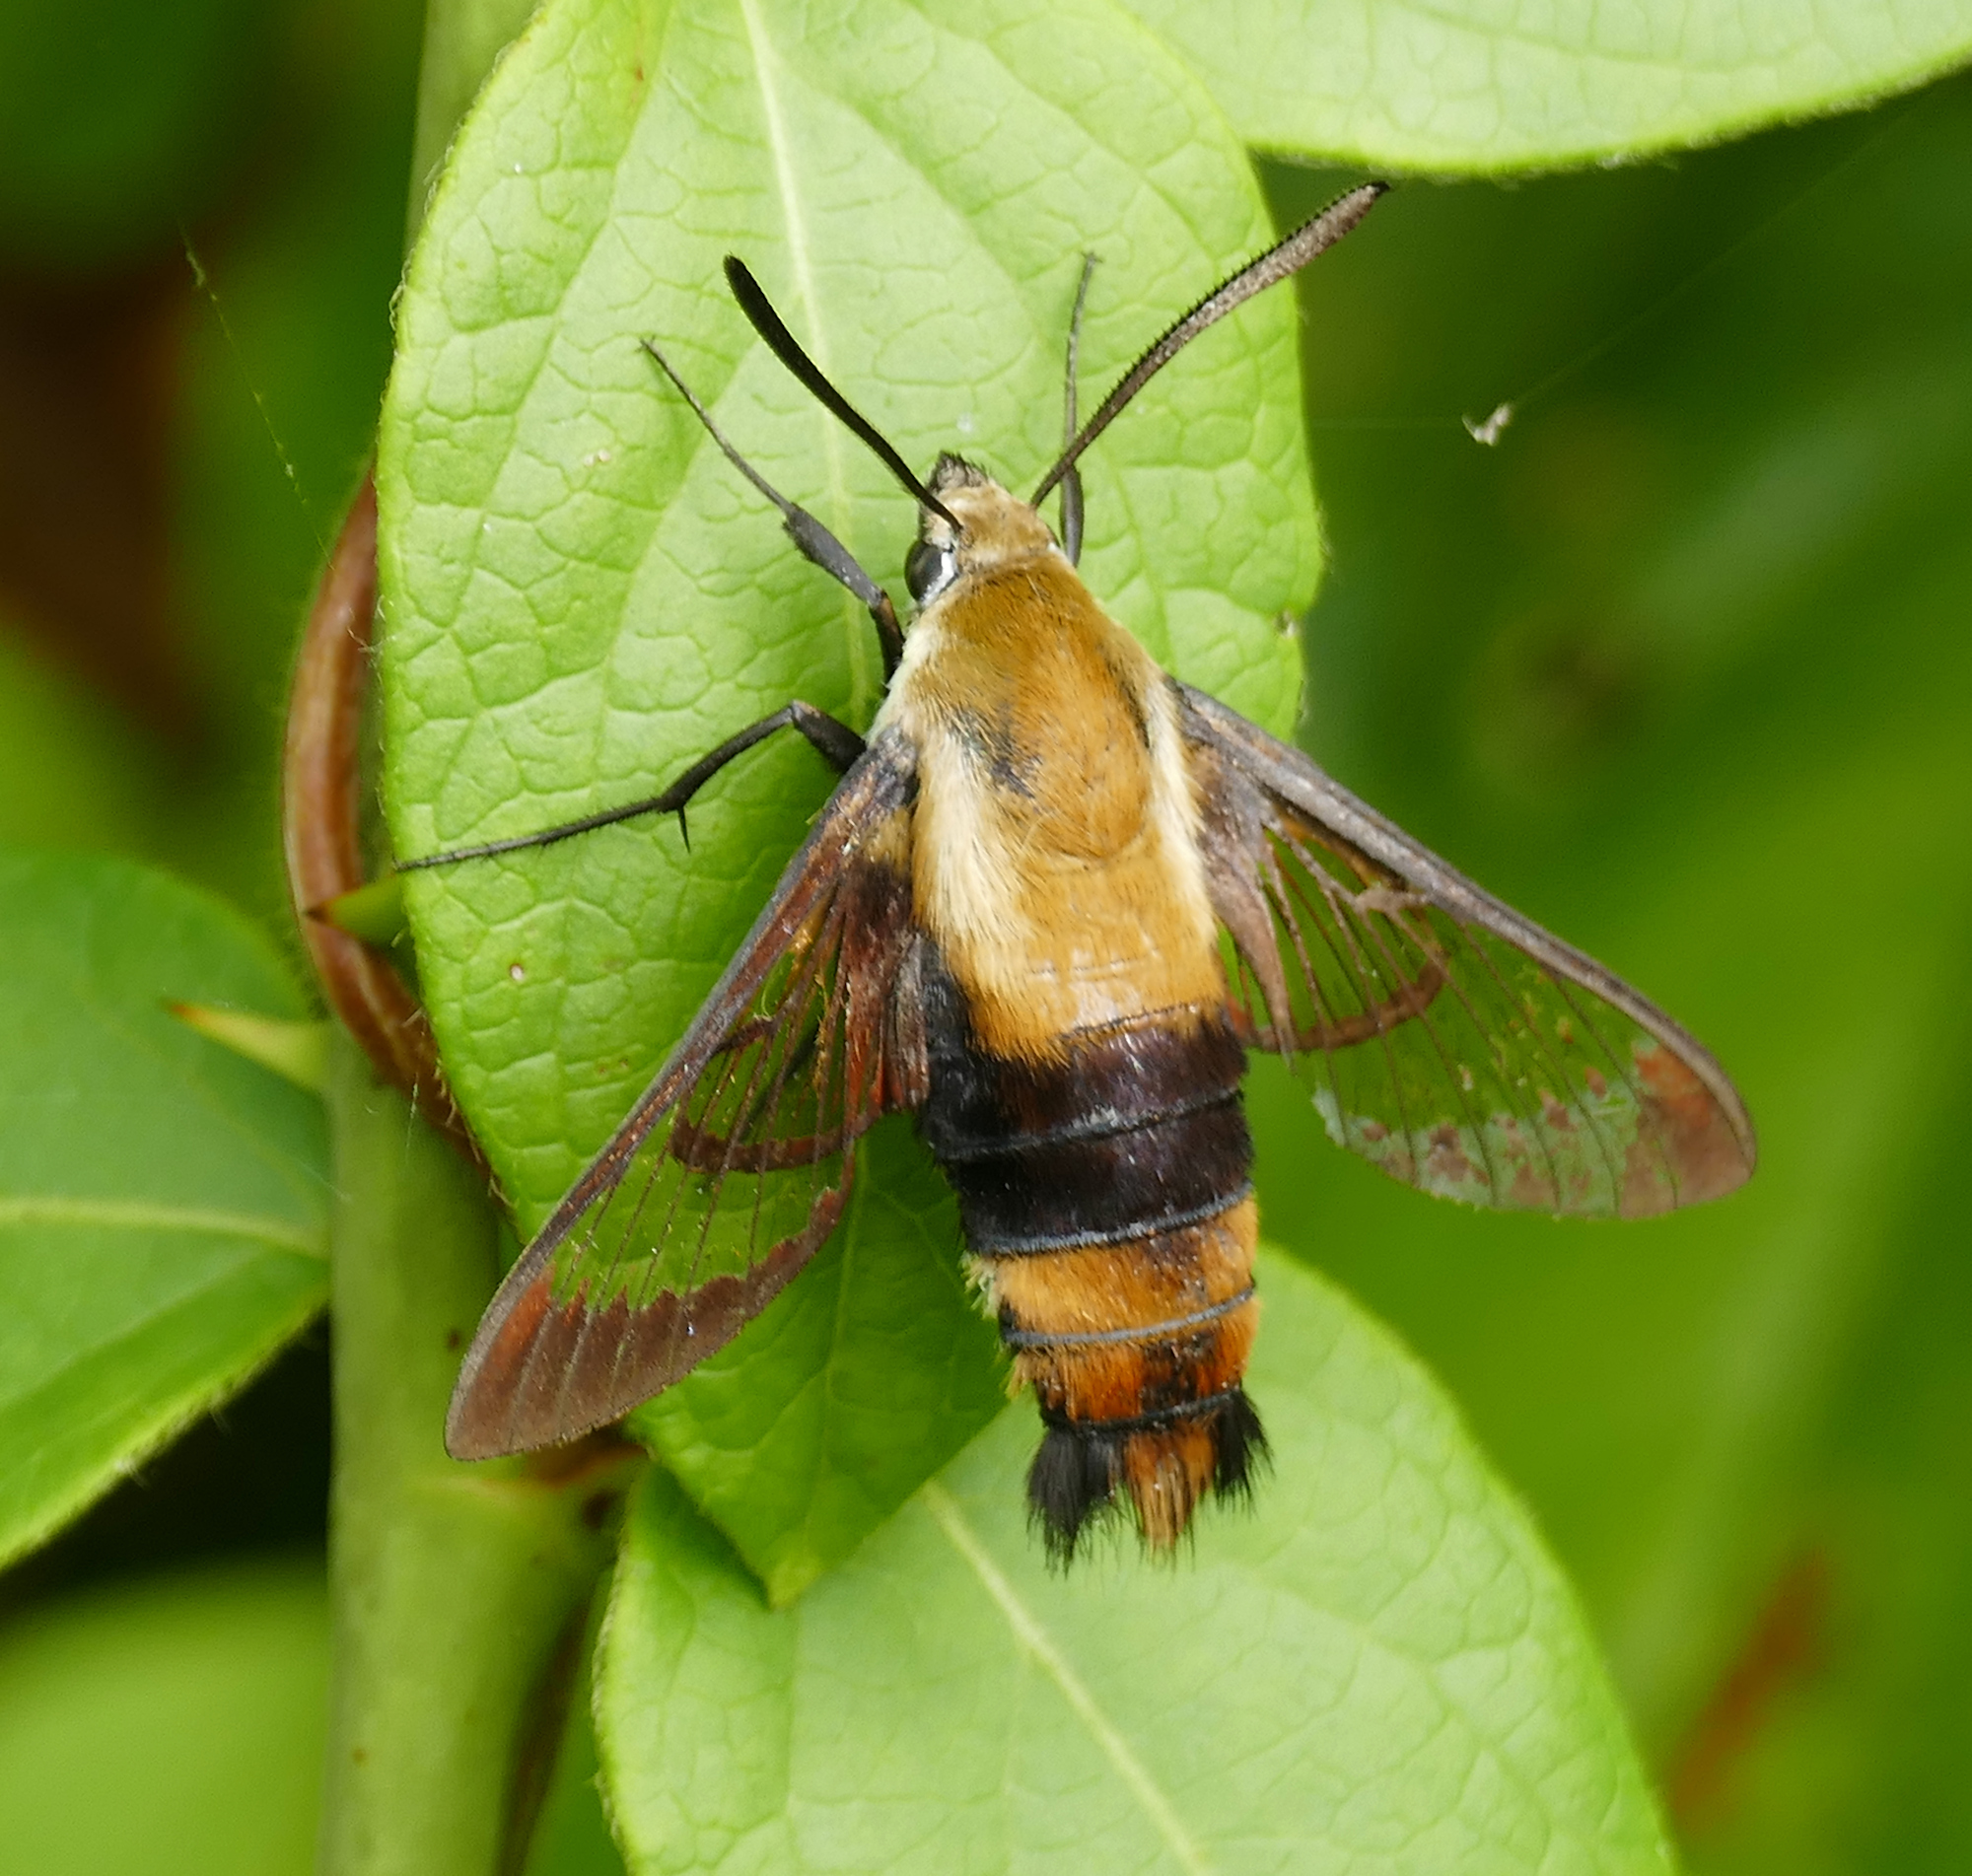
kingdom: Animalia
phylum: Arthropoda
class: Insecta
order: Lepidoptera
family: Sphingidae
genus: Hemaris
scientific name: Hemaris diffinis
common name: Bumblebee moth
